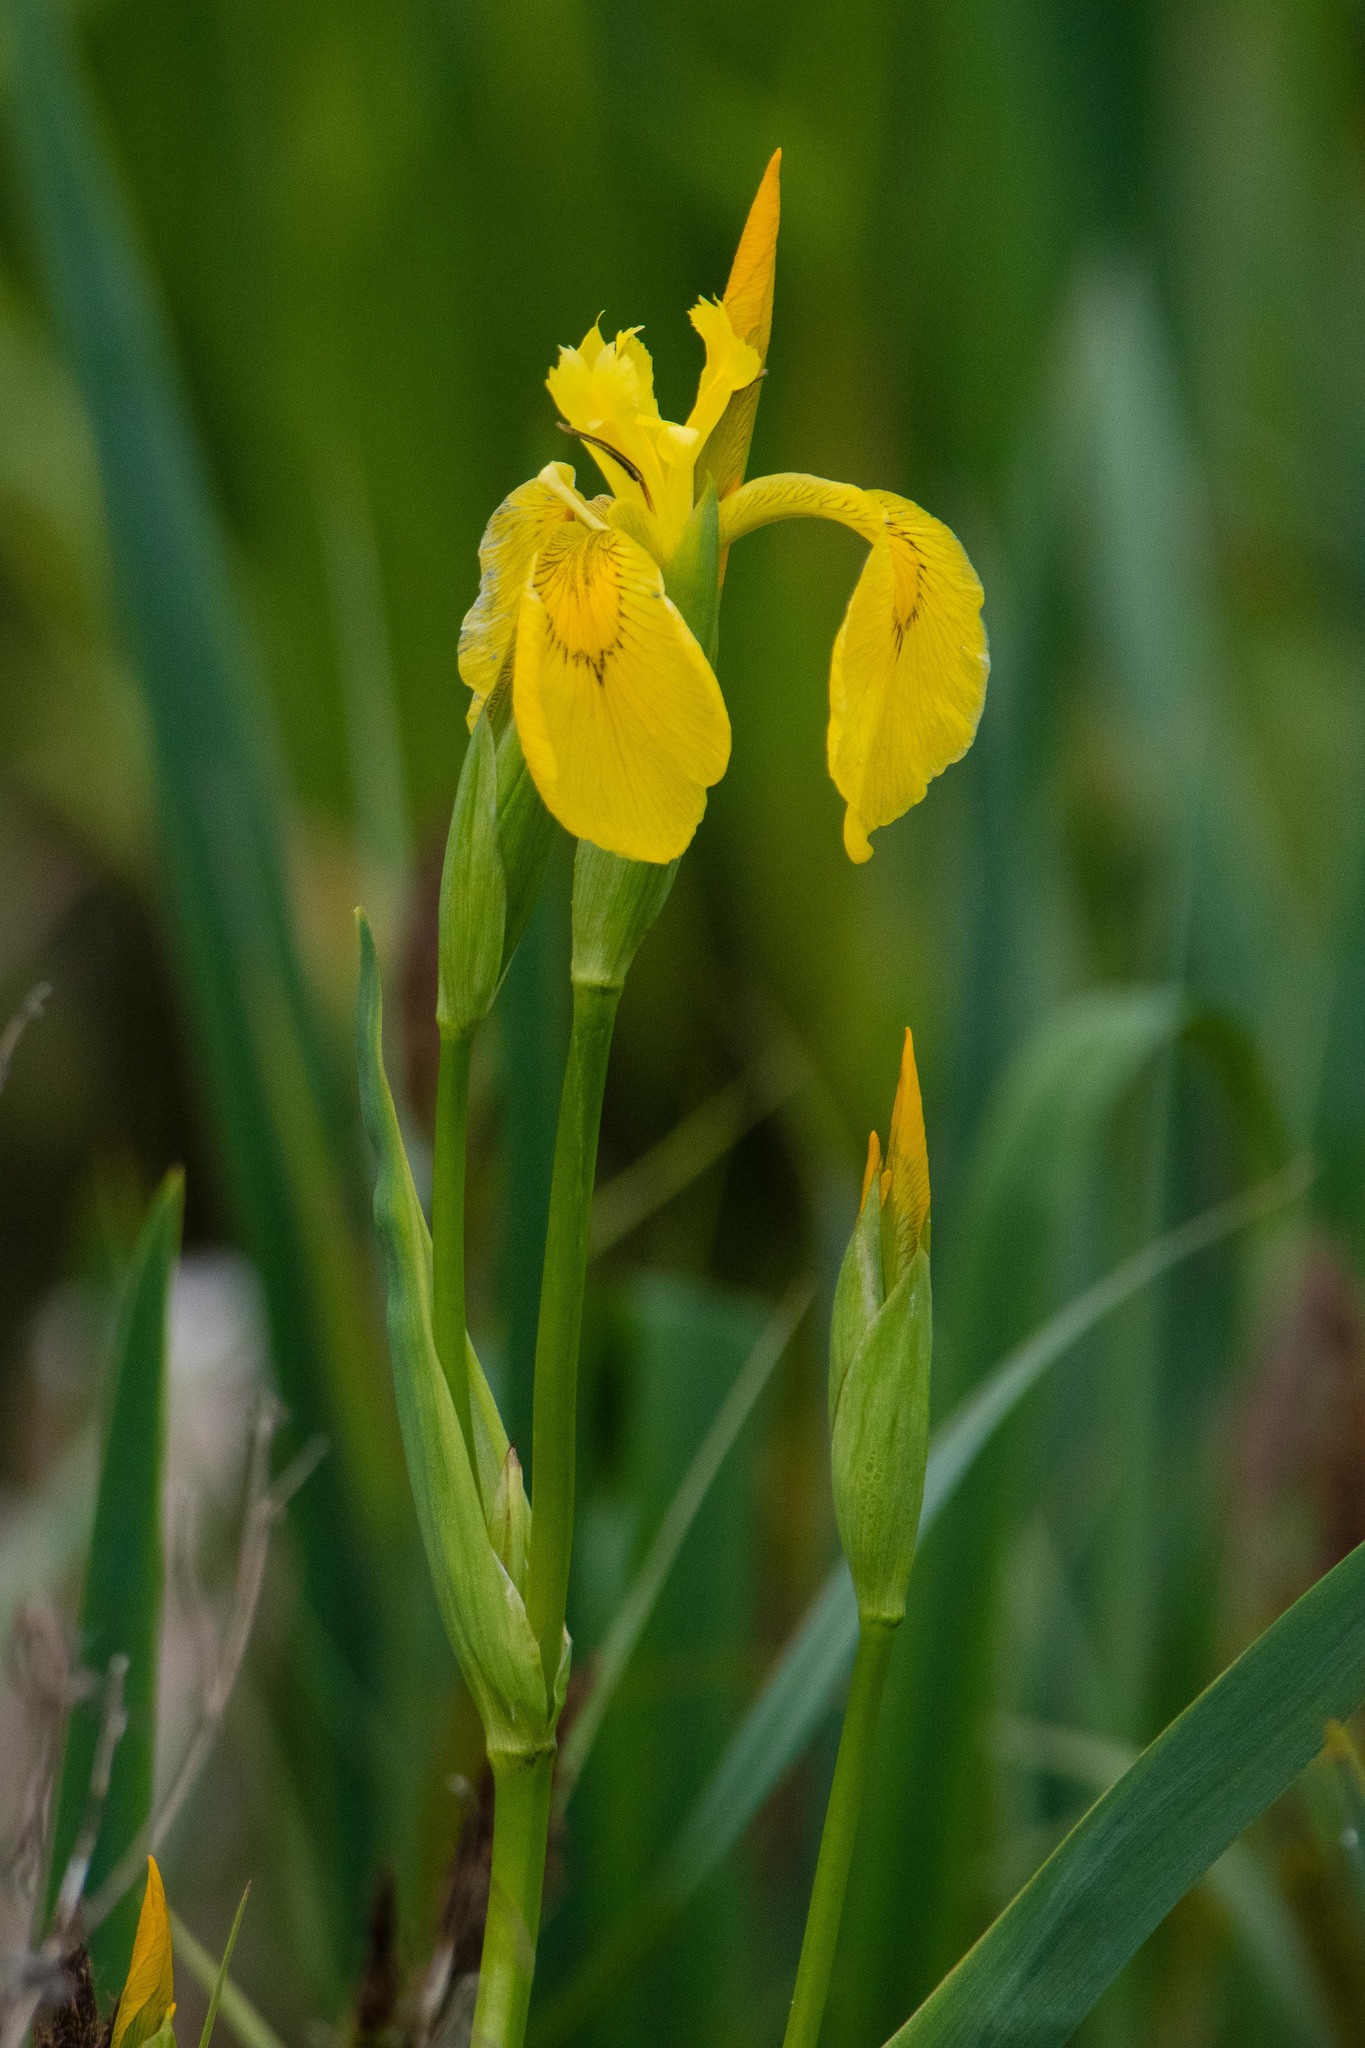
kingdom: Plantae
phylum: Tracheophyta
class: Liliopsida
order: Asparagales
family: Iridaceae
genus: Iris
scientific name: Iris pseudacorus
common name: Yellow flag
